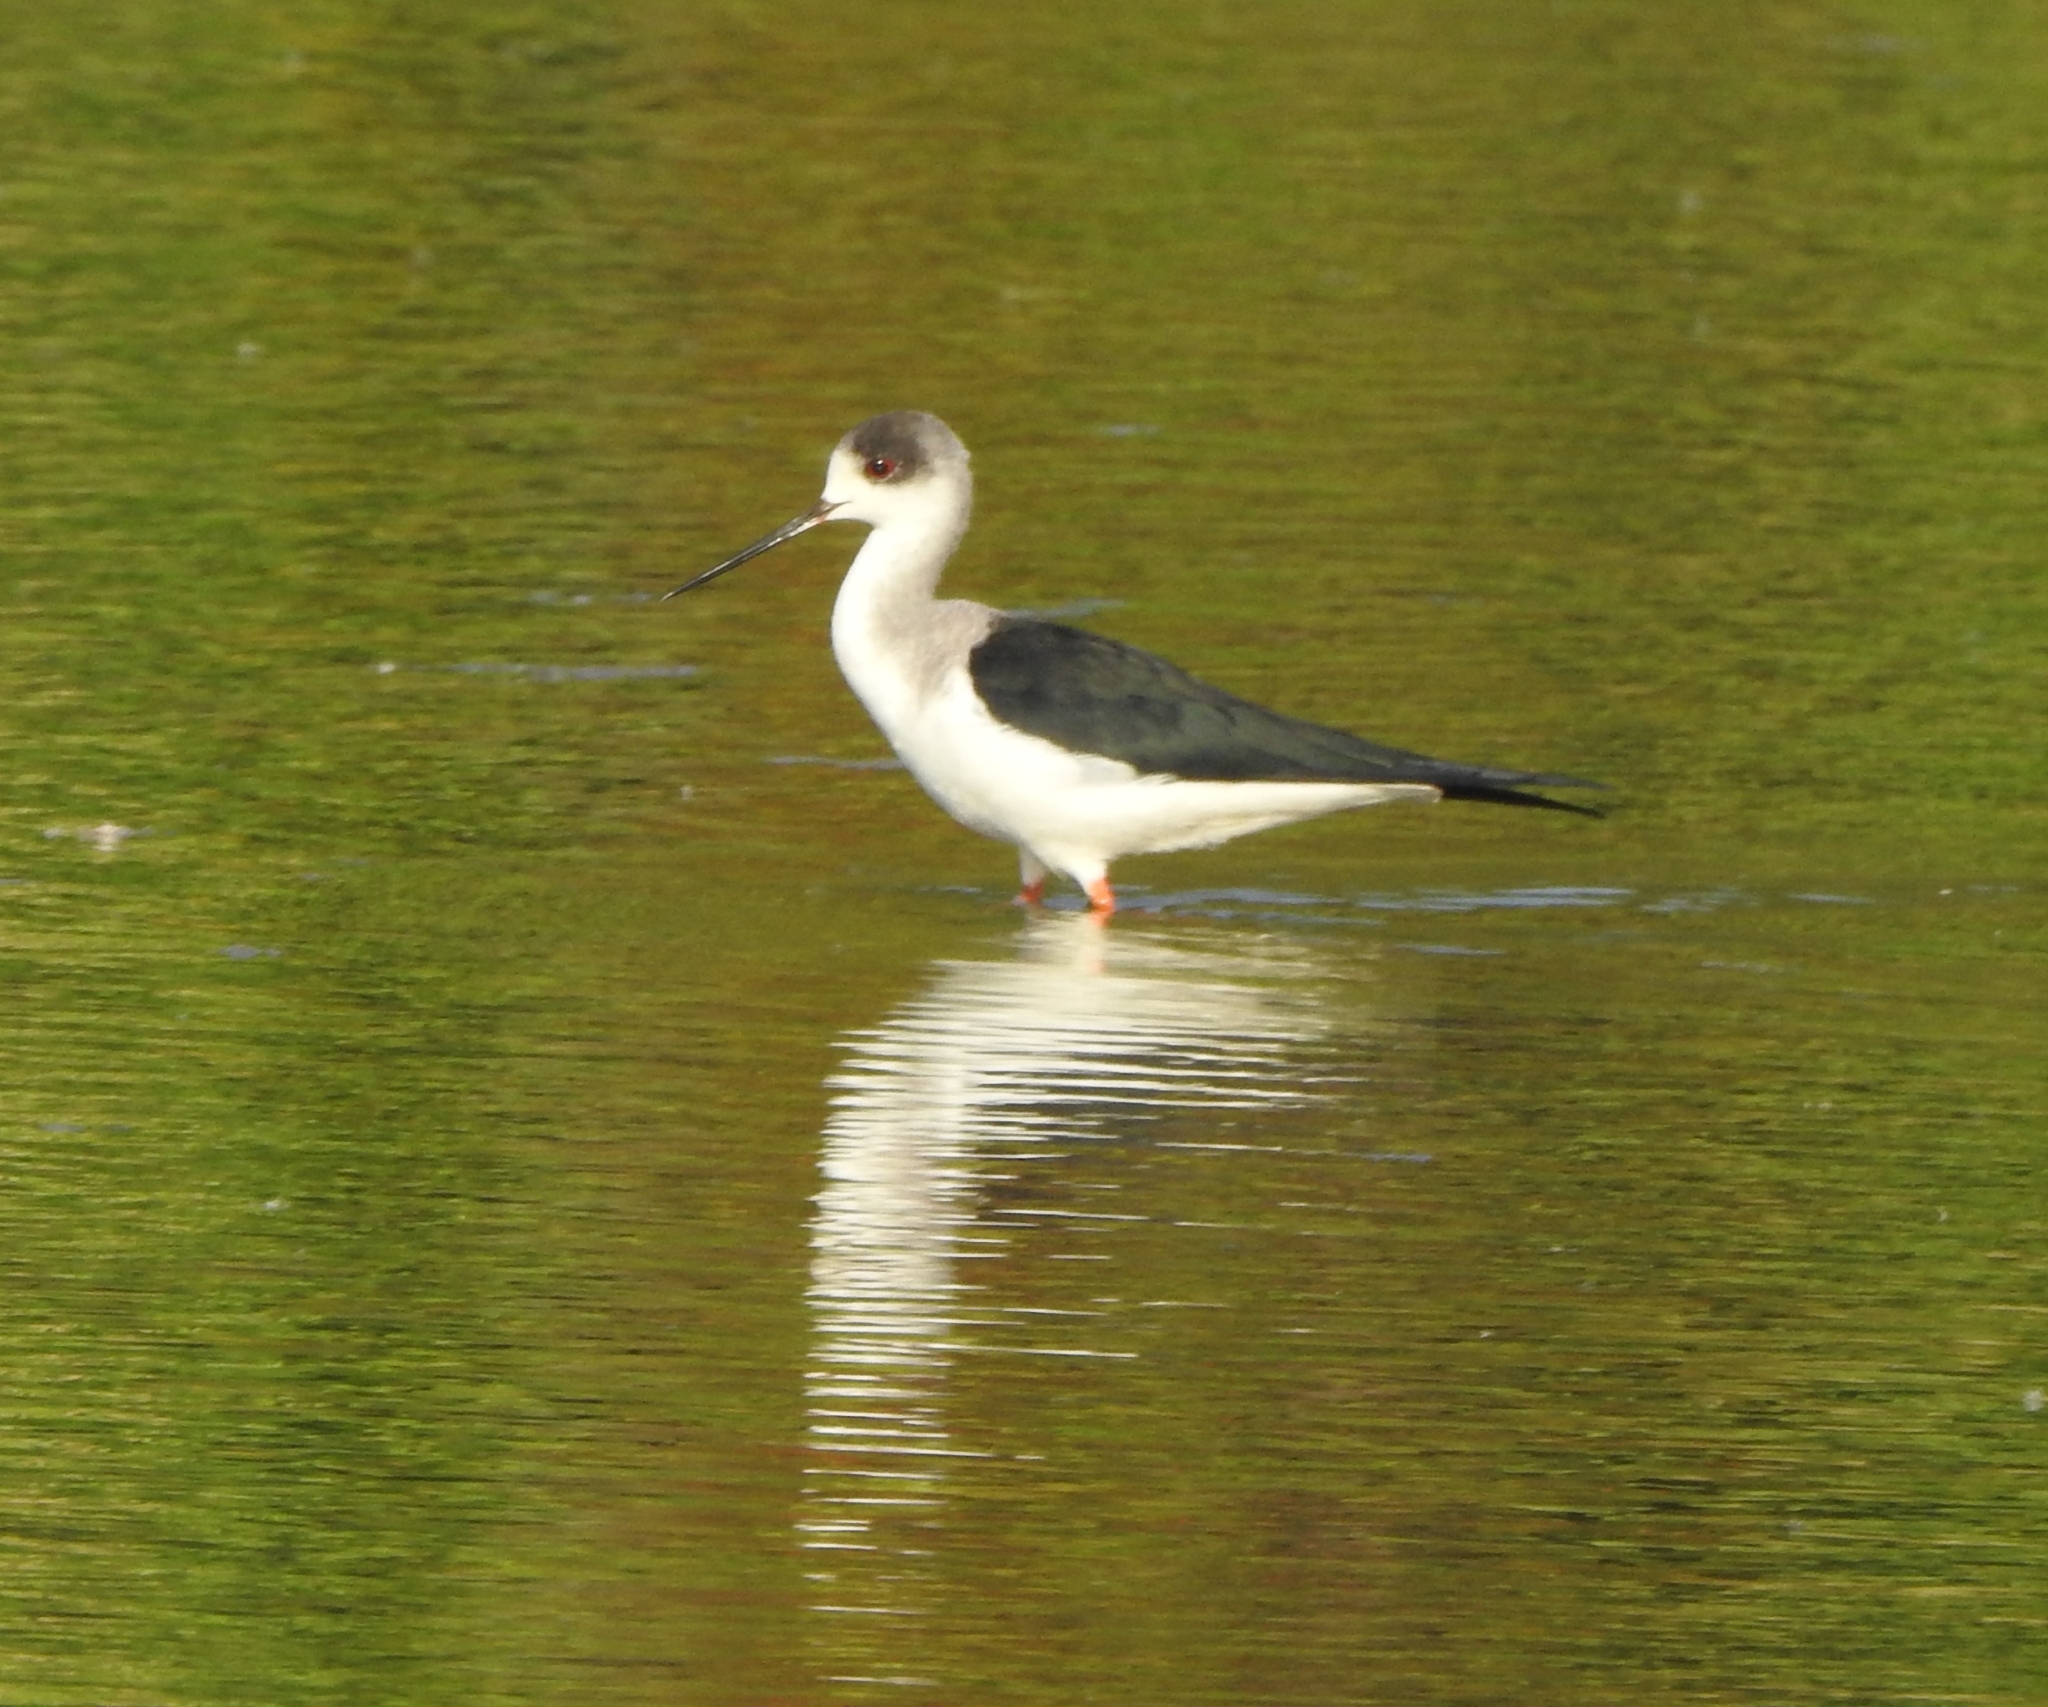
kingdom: Animalia
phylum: Chordata
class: Aves
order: Charadriiformes
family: Recurvirostridae
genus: Himantopus
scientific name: Himantopus himantopus
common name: Black-winged stilt
